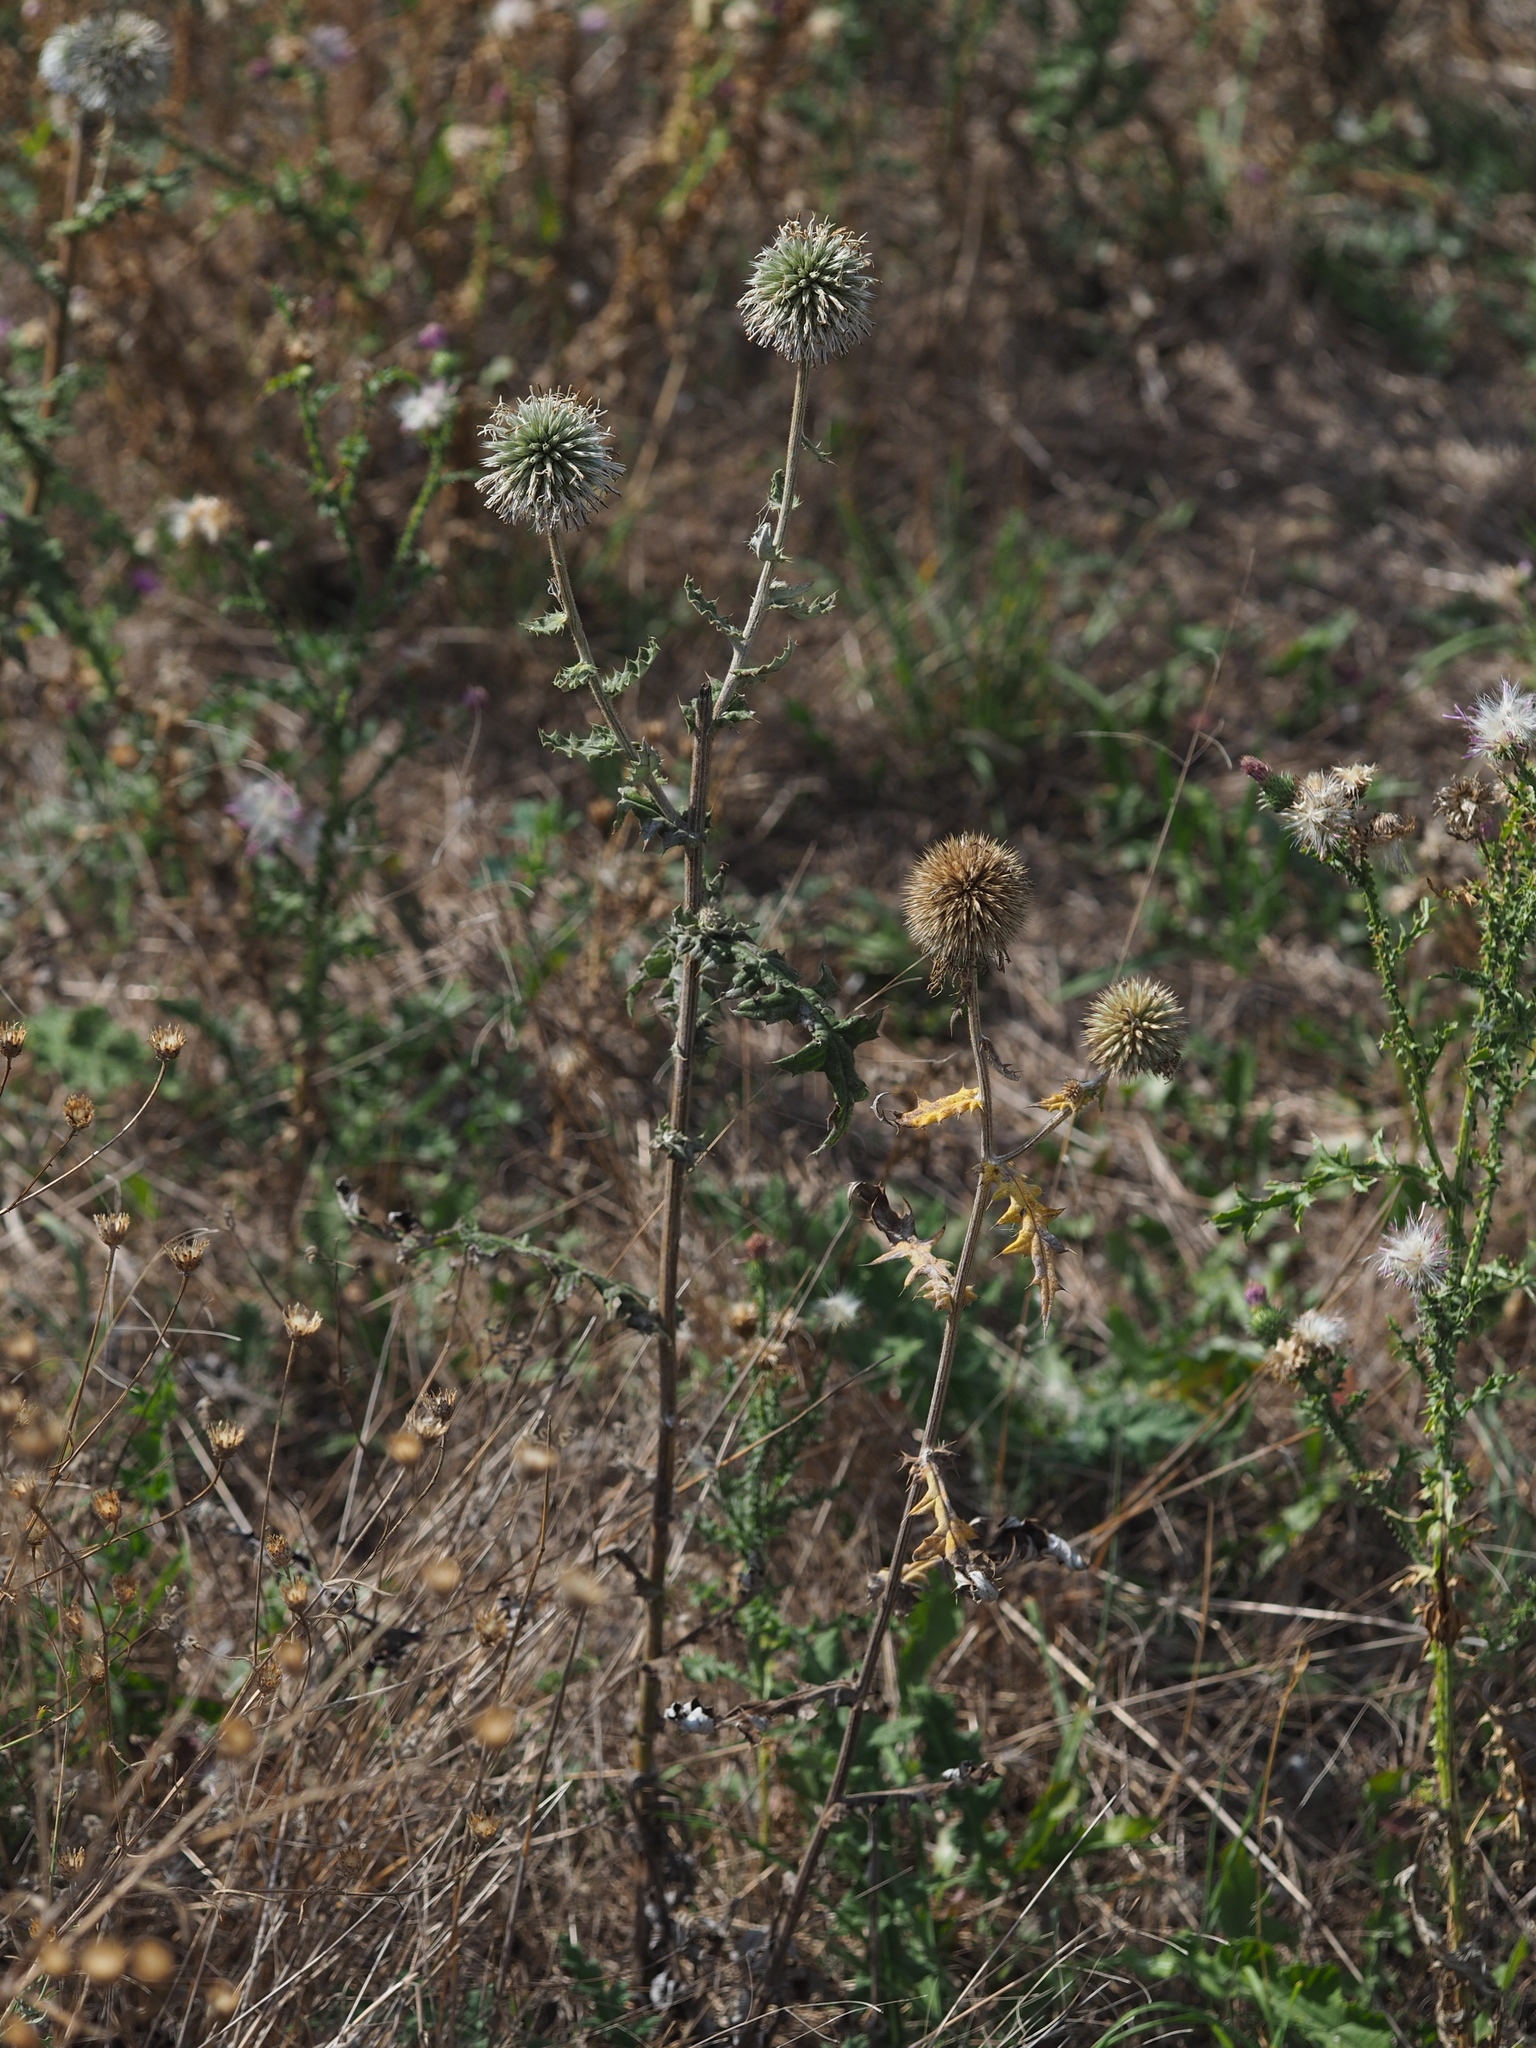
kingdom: Plantae
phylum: Tracheophyta
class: Magnoliopsida
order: Asterales
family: Asteraceae
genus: Echinops
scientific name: Echinops sphaerocephalus
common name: Glandular globe-thistle
